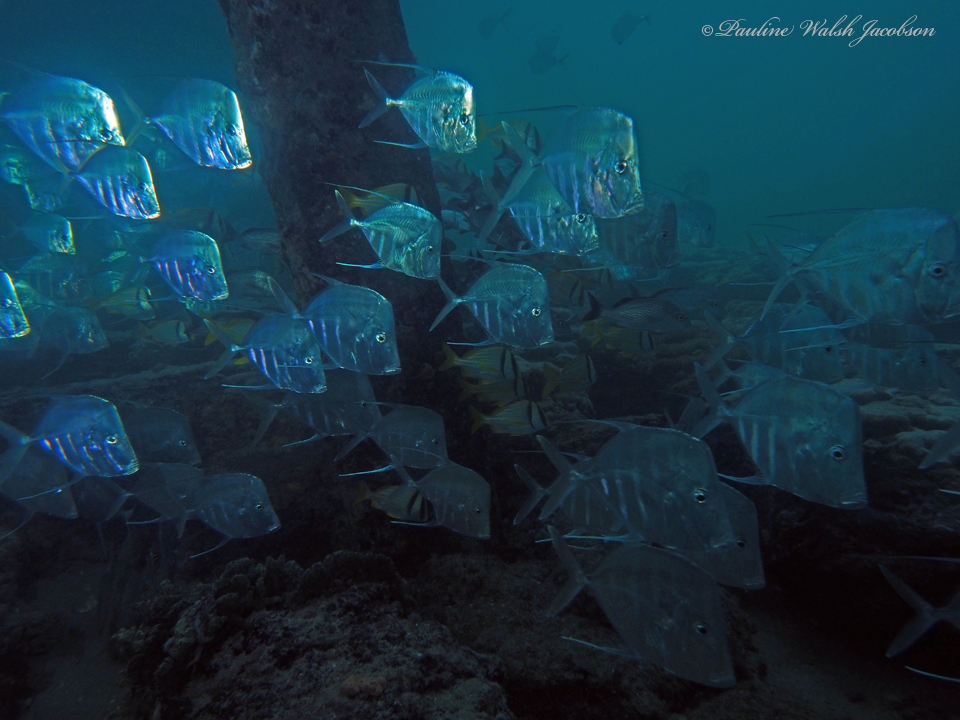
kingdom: Animalia
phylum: Chordata
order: Perciformes
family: Carangidae
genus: Selene
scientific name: Selene vomer
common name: Lookdown
